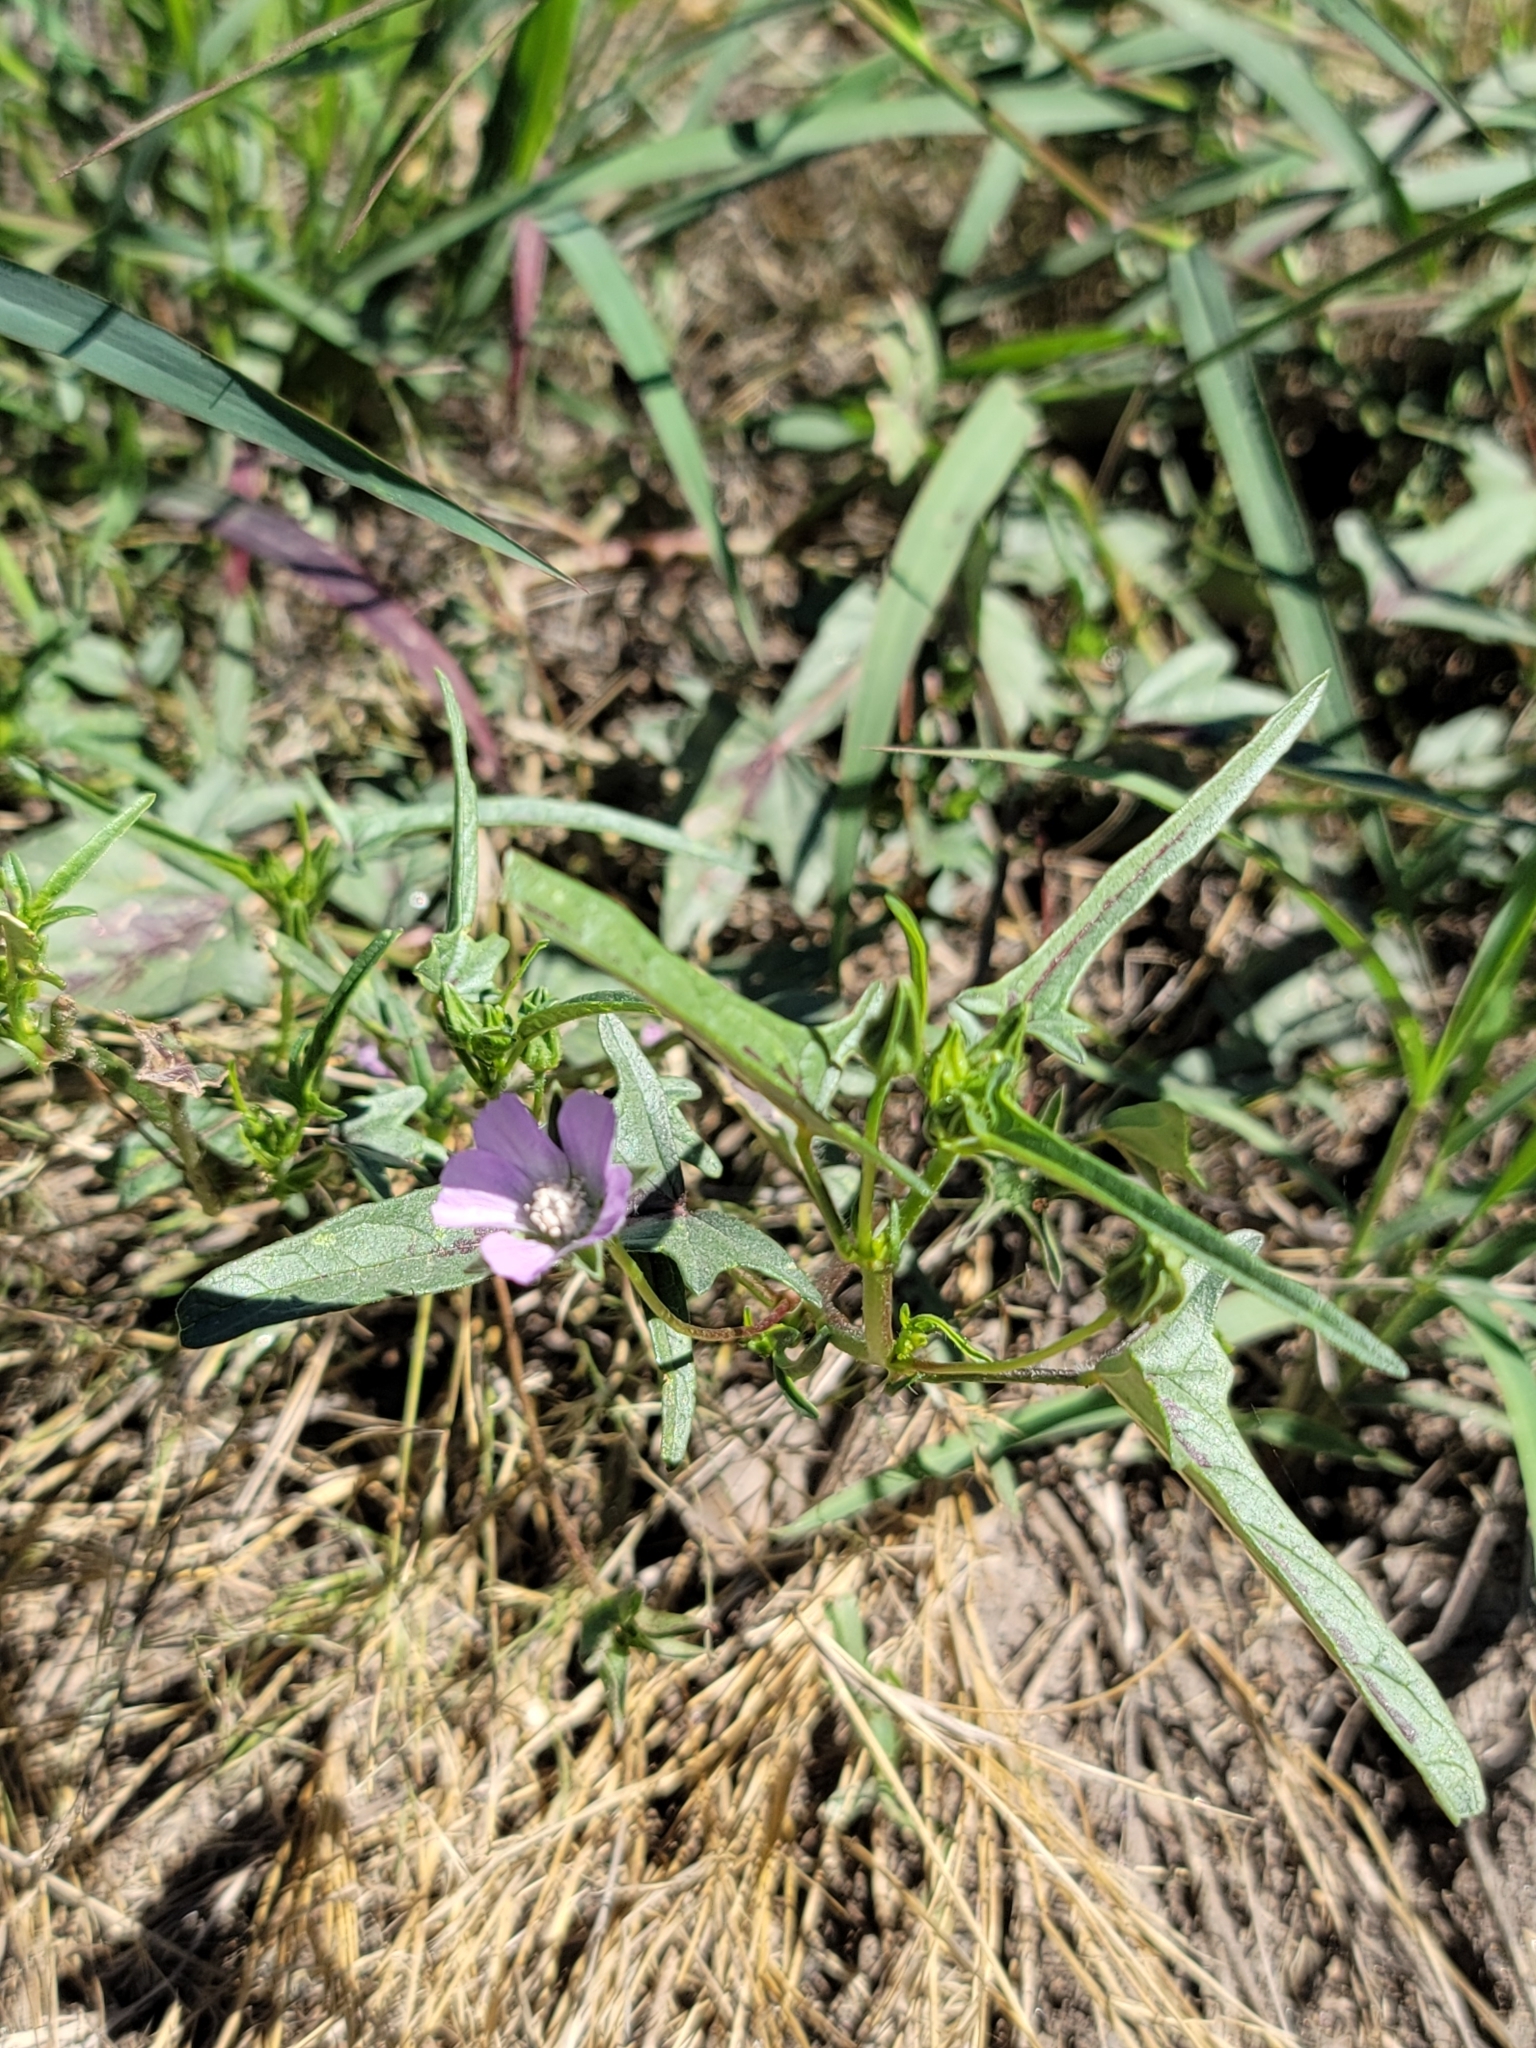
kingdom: Plantae
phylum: Tracheophyta
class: Magnoliopsida
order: Malvales
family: Malvaceae
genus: Anoda
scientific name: Anoda cristata
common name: Spurred anoda
